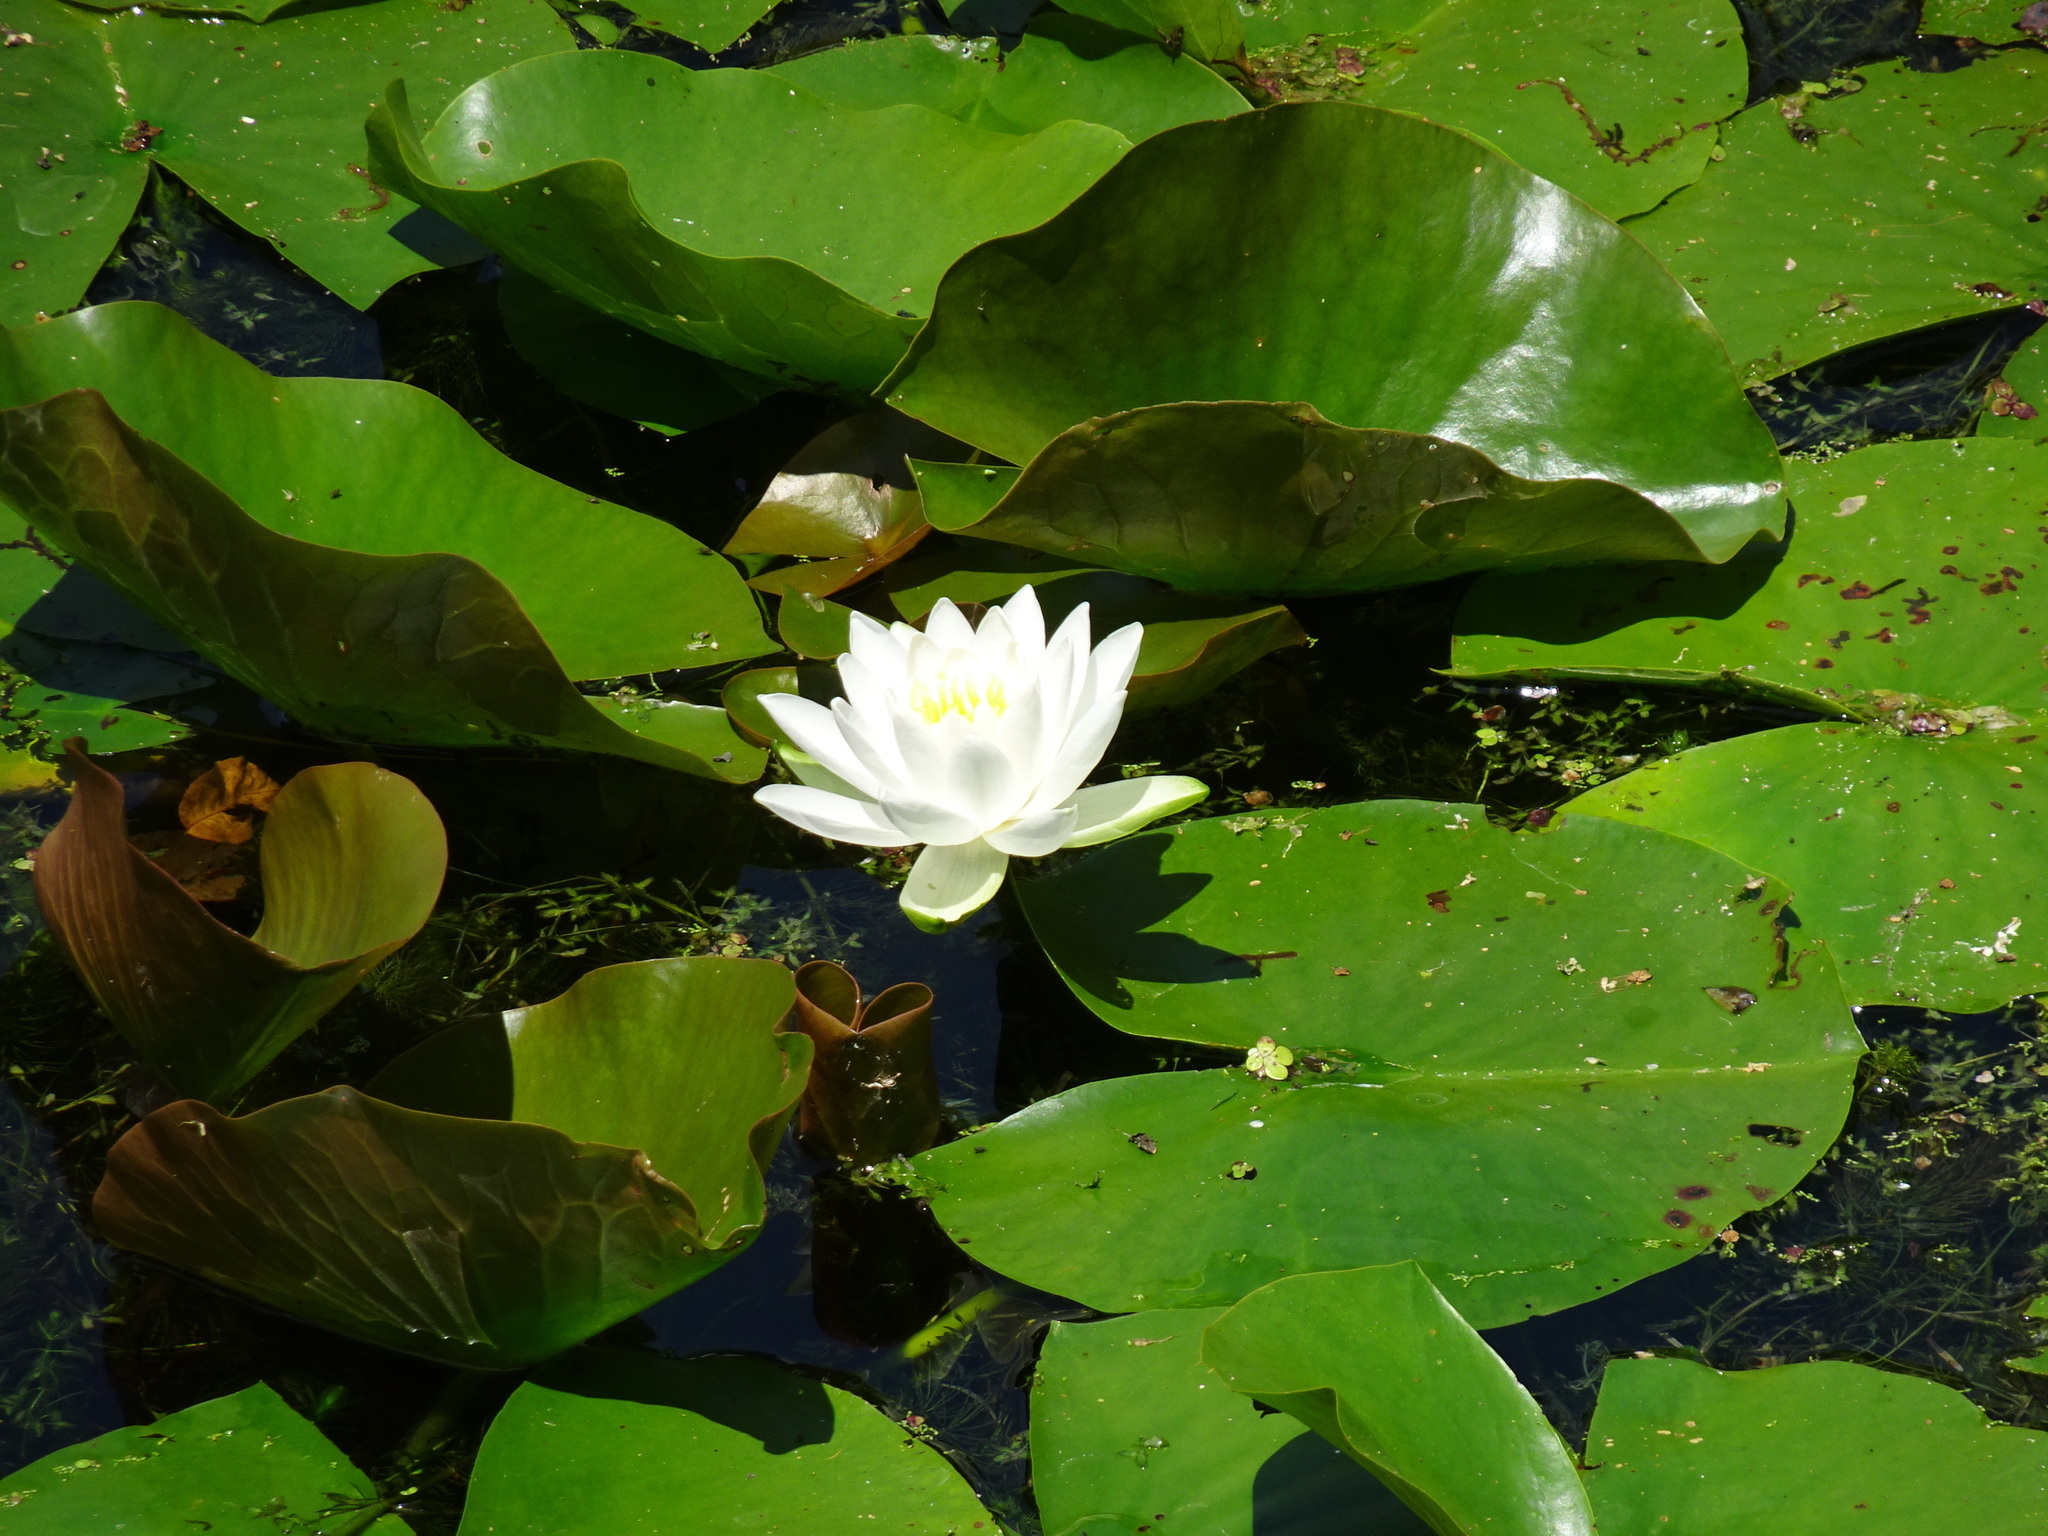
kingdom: Plantae
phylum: Tracheophyta
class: Magnoliopsida
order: Nymphaeales
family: Nymphaeaceae
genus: Nymphaea
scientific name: Nymphaea odorata
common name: Fragrant water-lily
